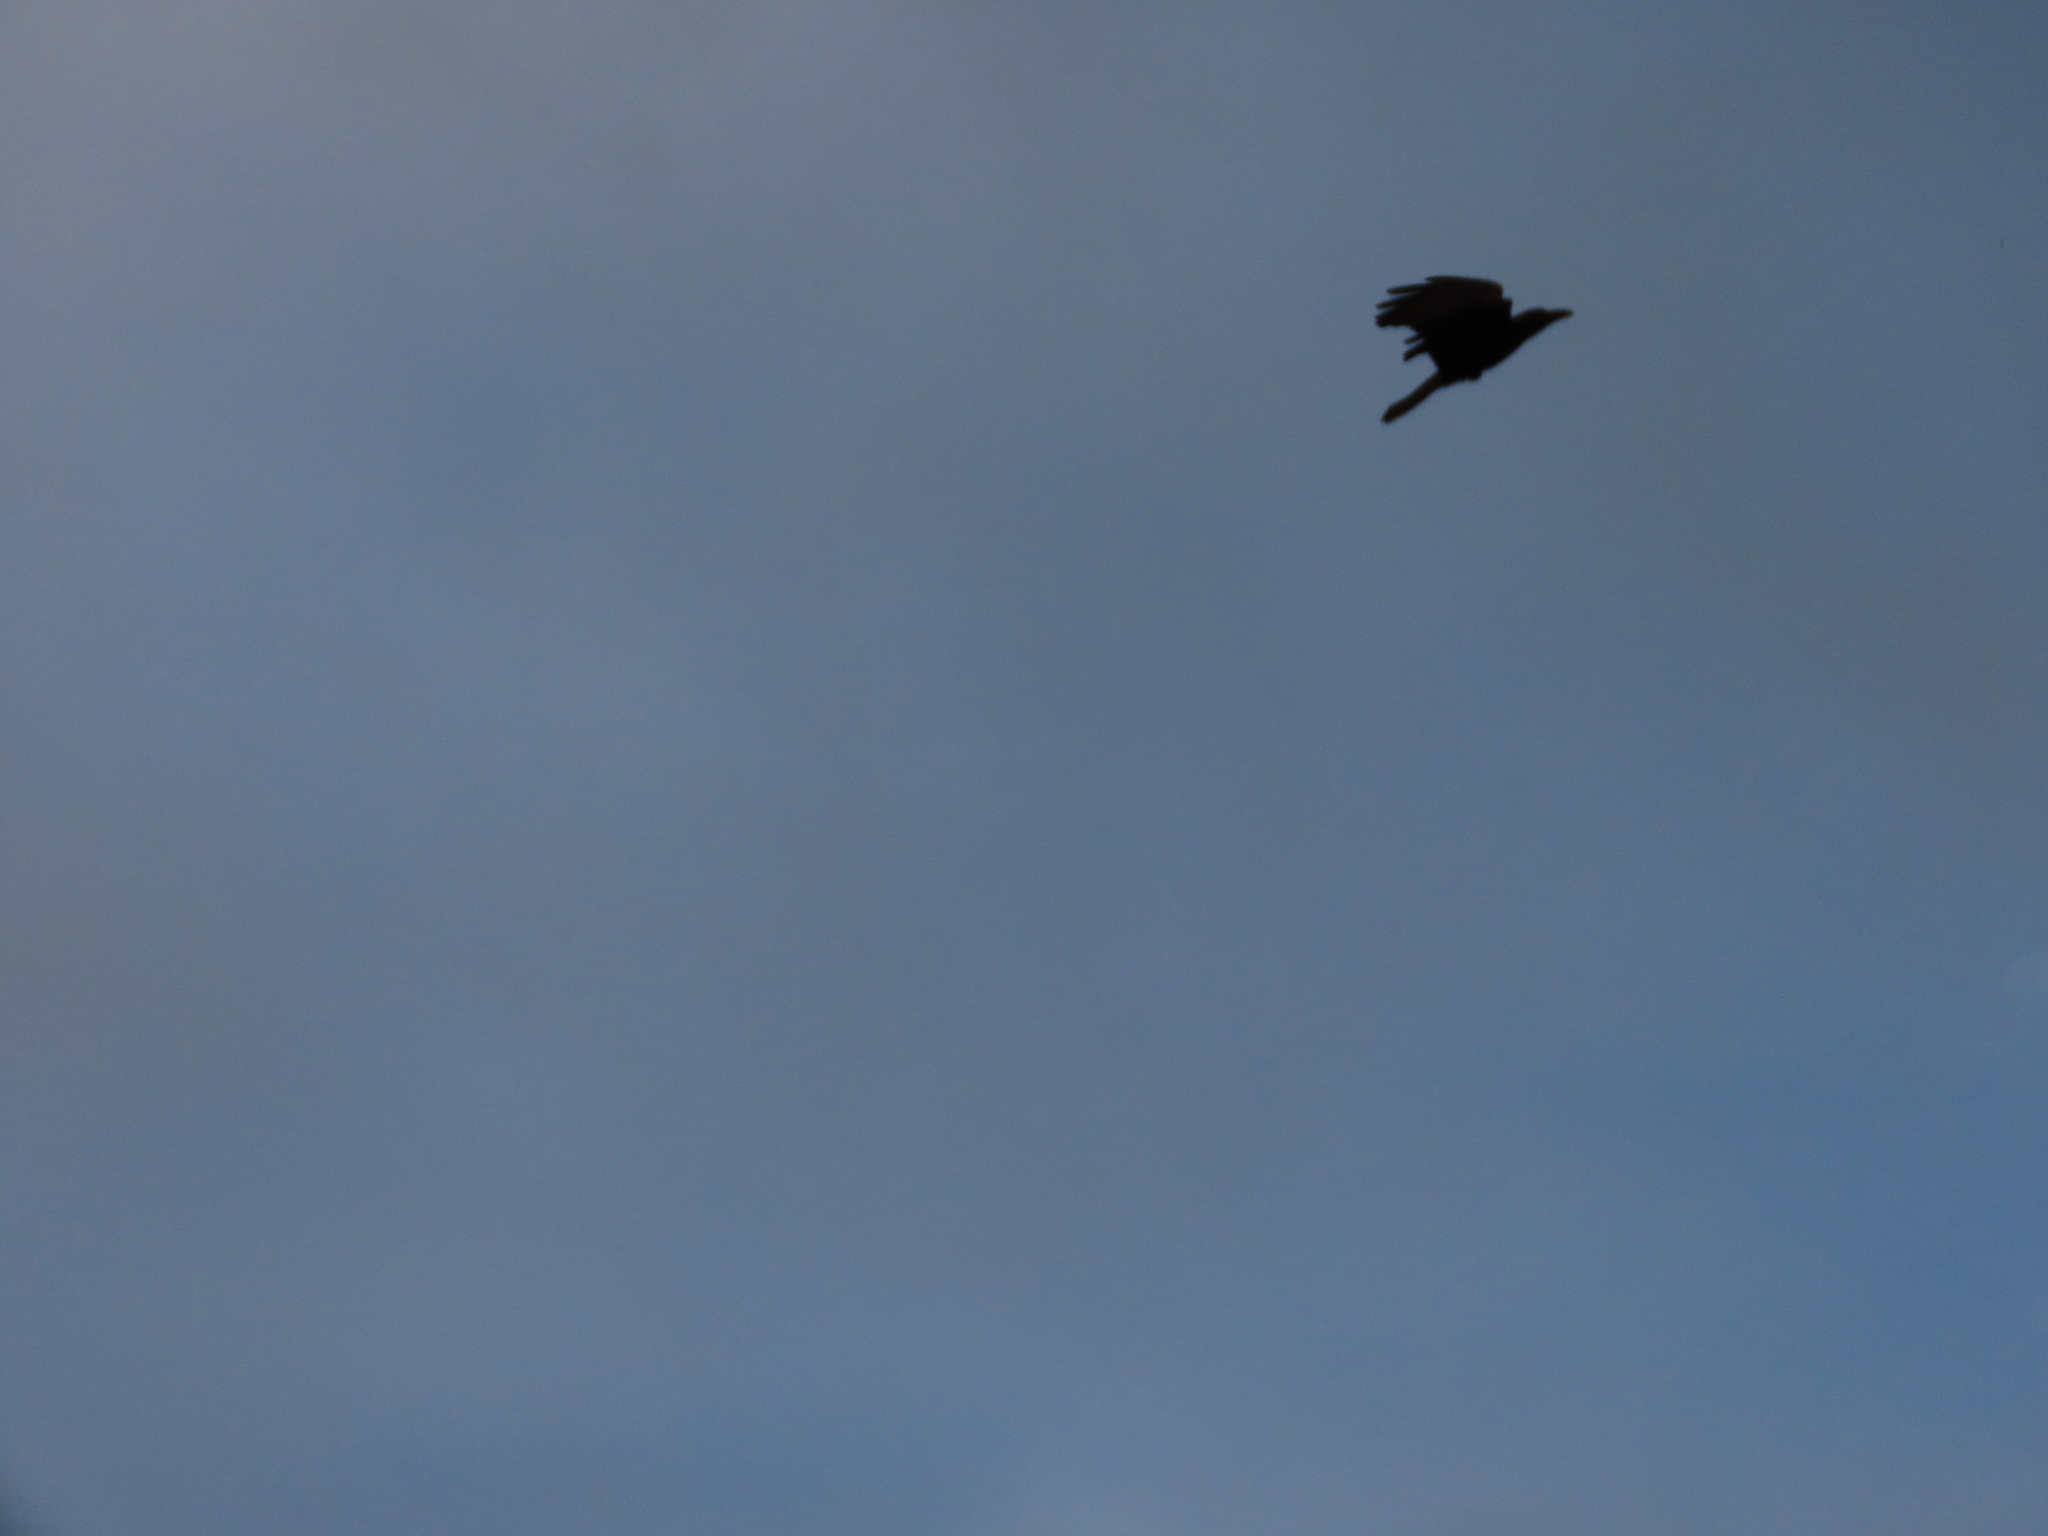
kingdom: Animalia
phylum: Chordata
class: Aves
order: Passeriformes
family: Corvidae
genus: Corvus
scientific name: Corvus splendens
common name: House crow
